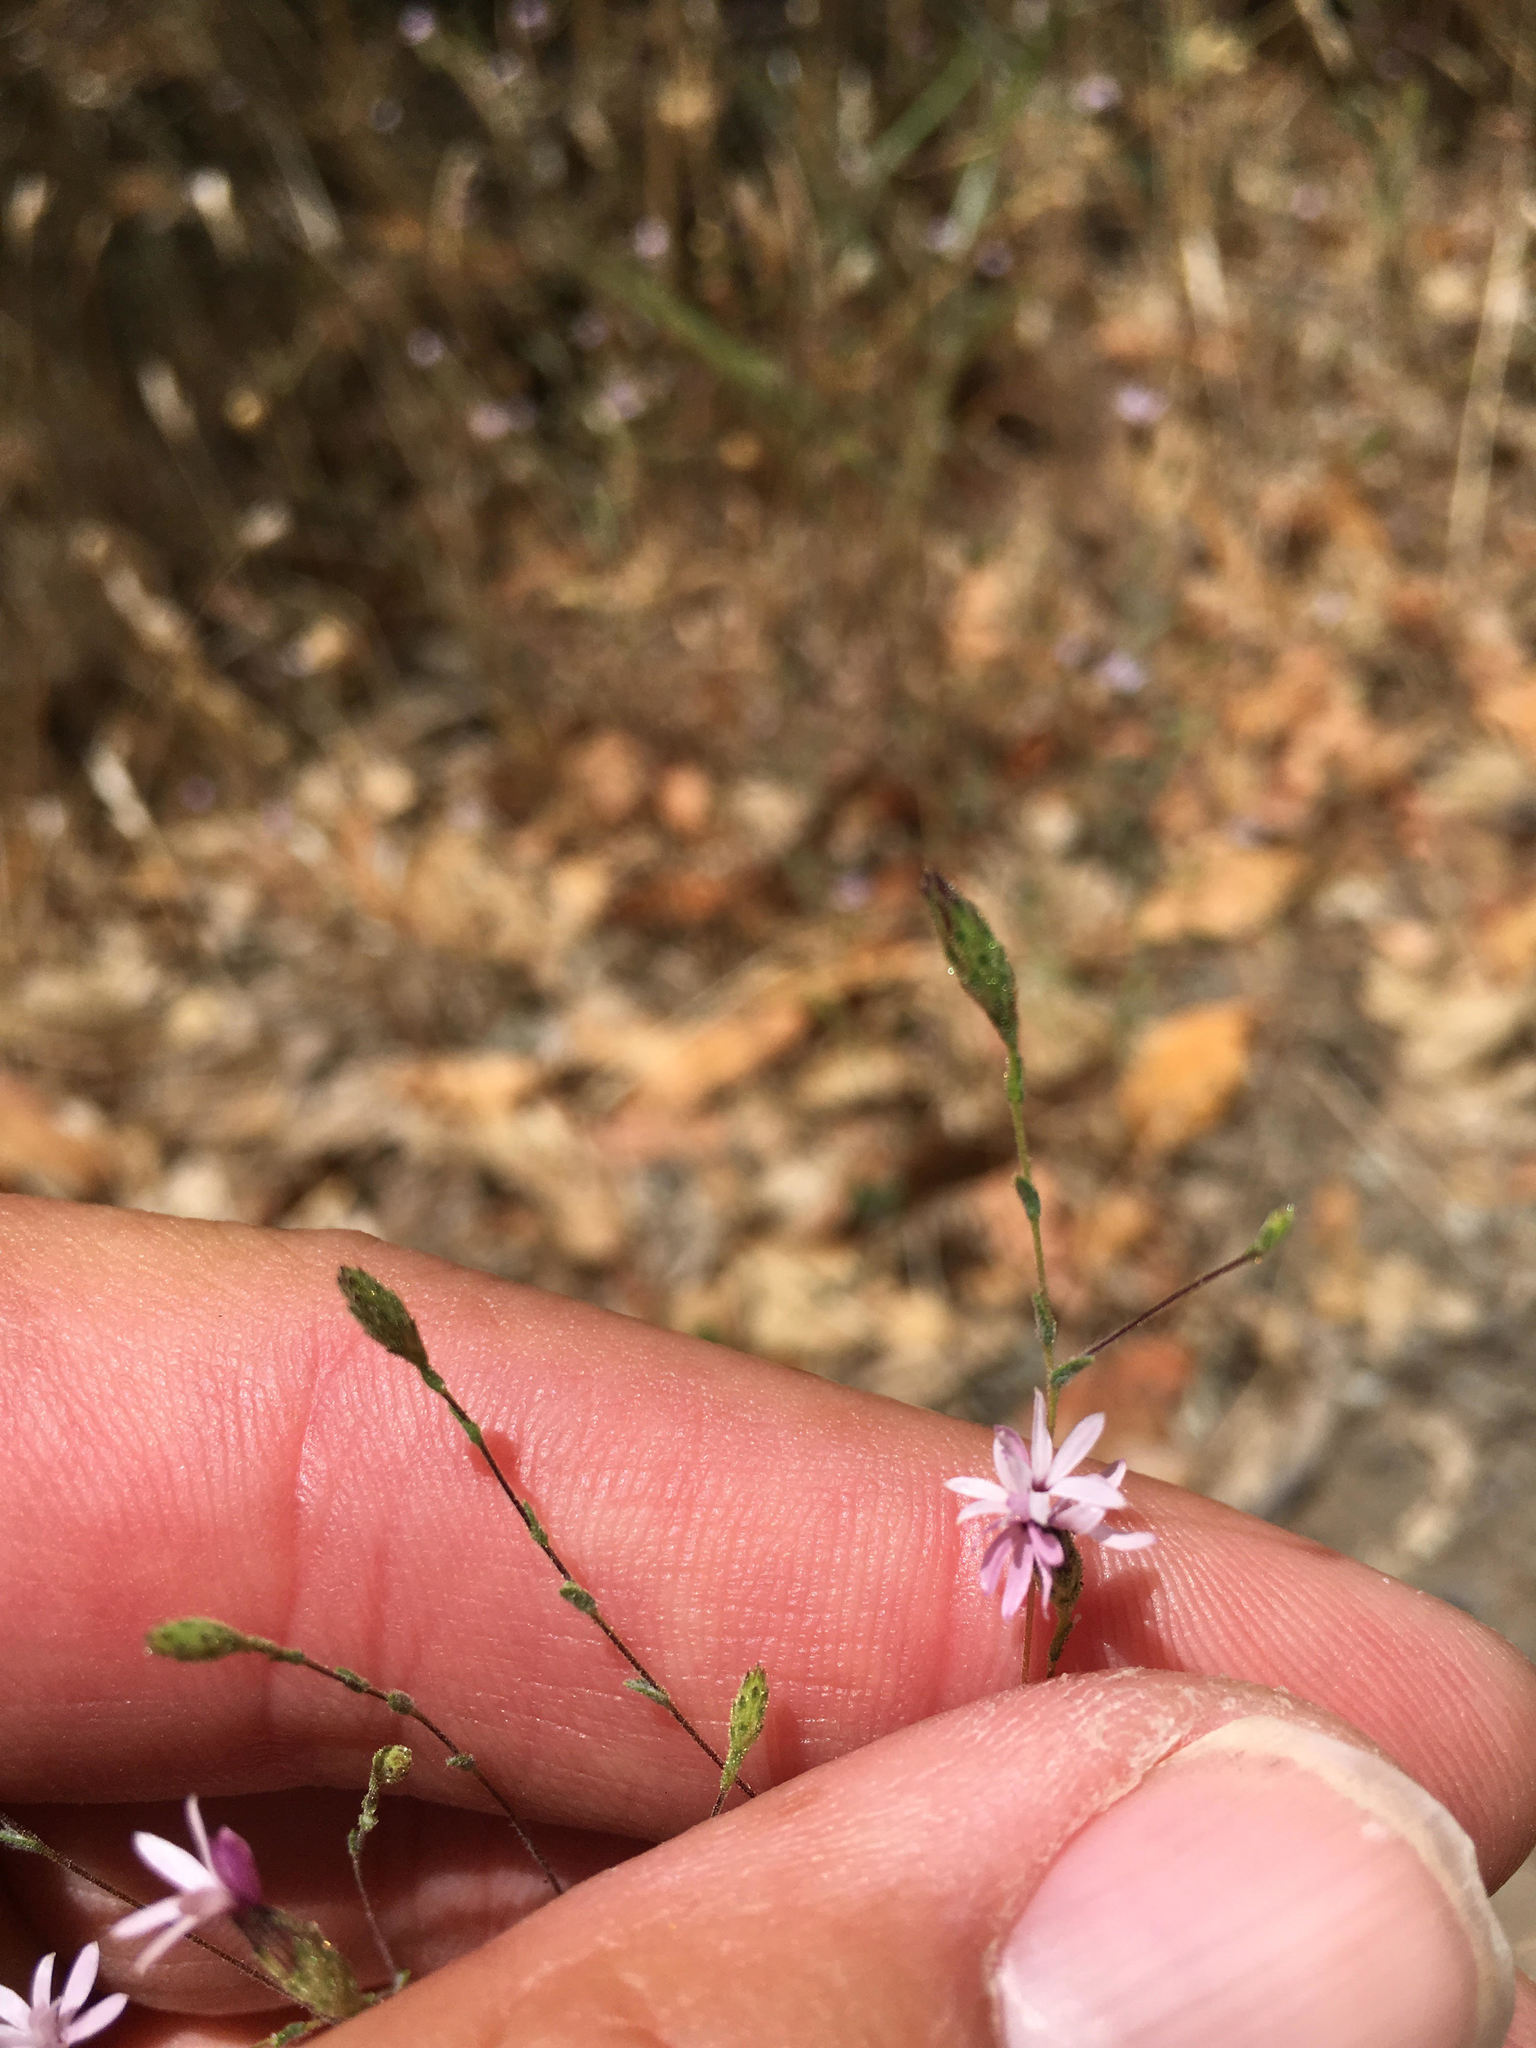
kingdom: Plantae
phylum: Tracheophyta
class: Magnoliopsida
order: Asterales
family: Asteraceae
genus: Lessingia
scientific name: Lessingia micradenia
